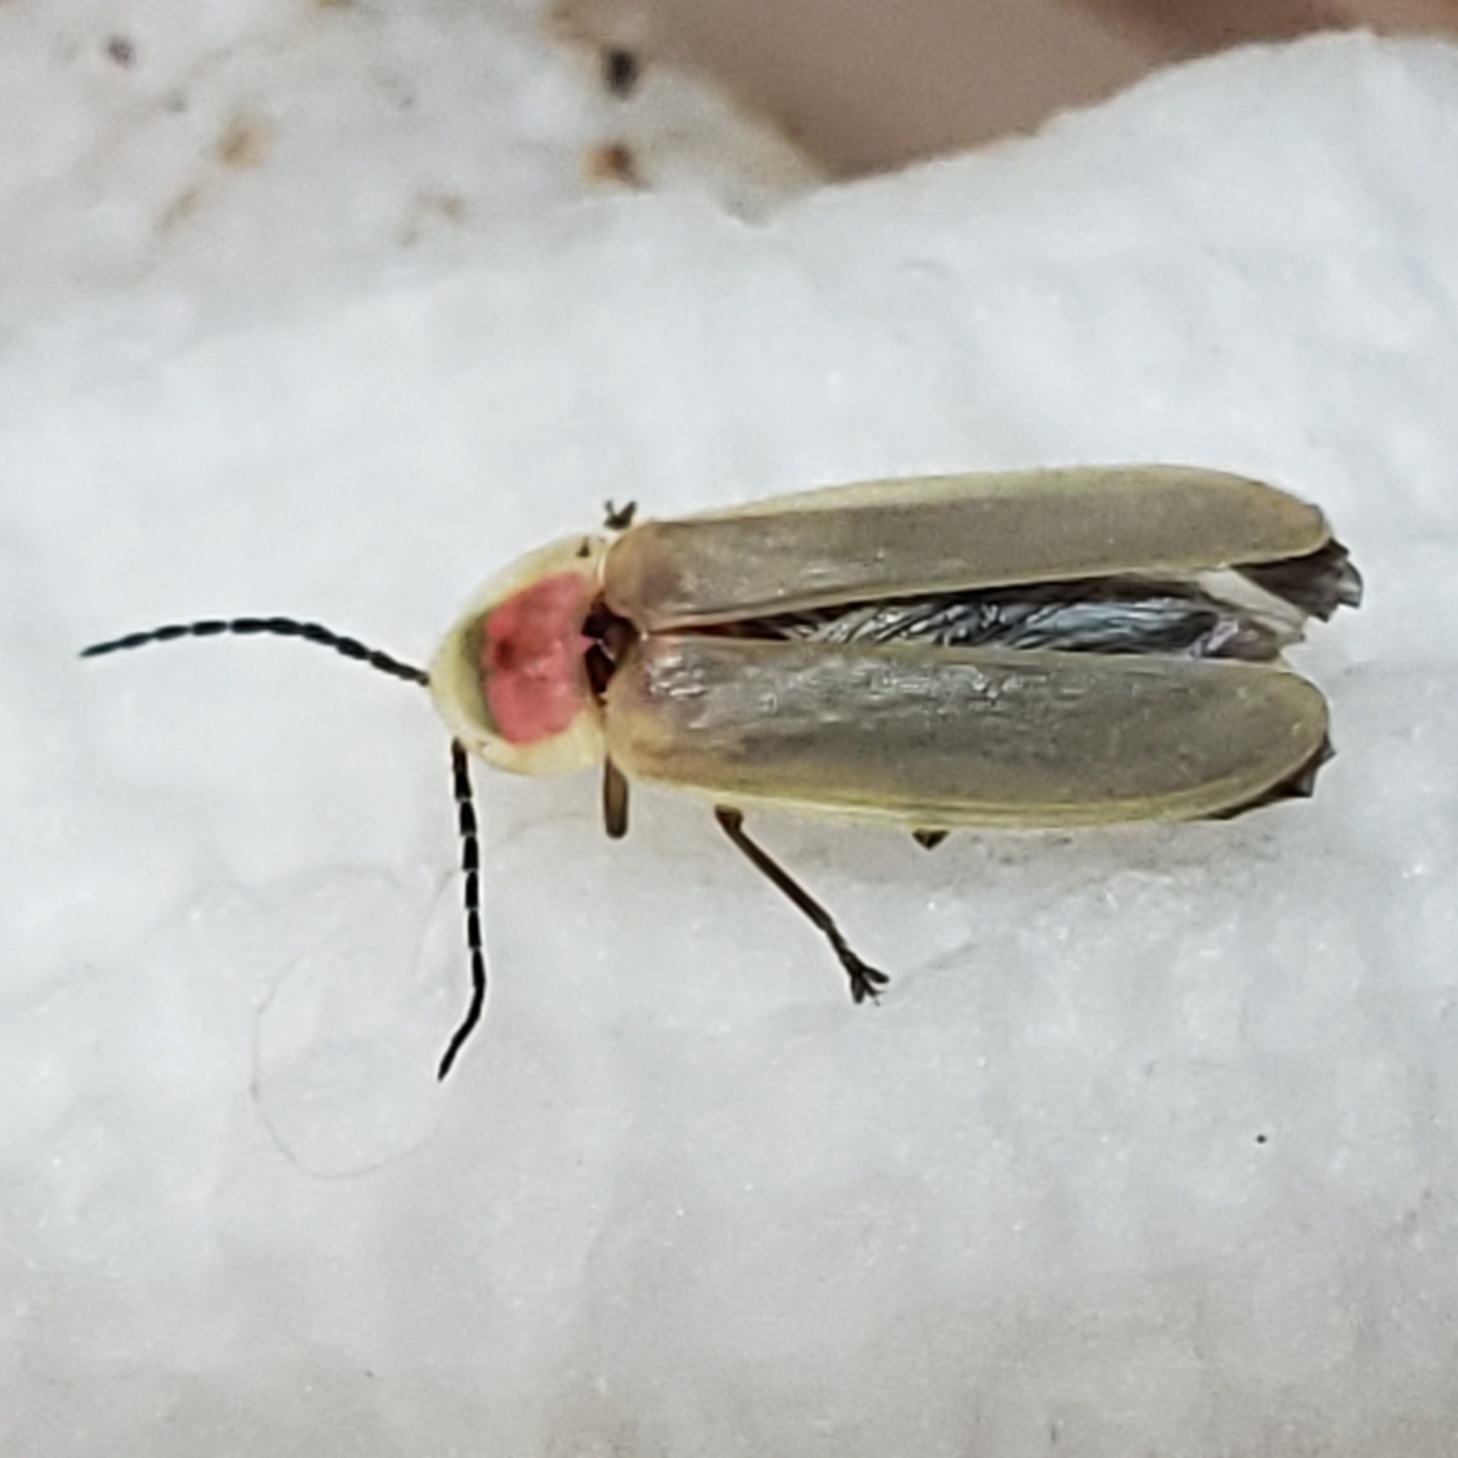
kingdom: Animalia
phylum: Arthropoda
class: Insecta
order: Coleoptera
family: Lampyridae
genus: Photinus
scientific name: Photinus marginellus
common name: Little gray firefly
